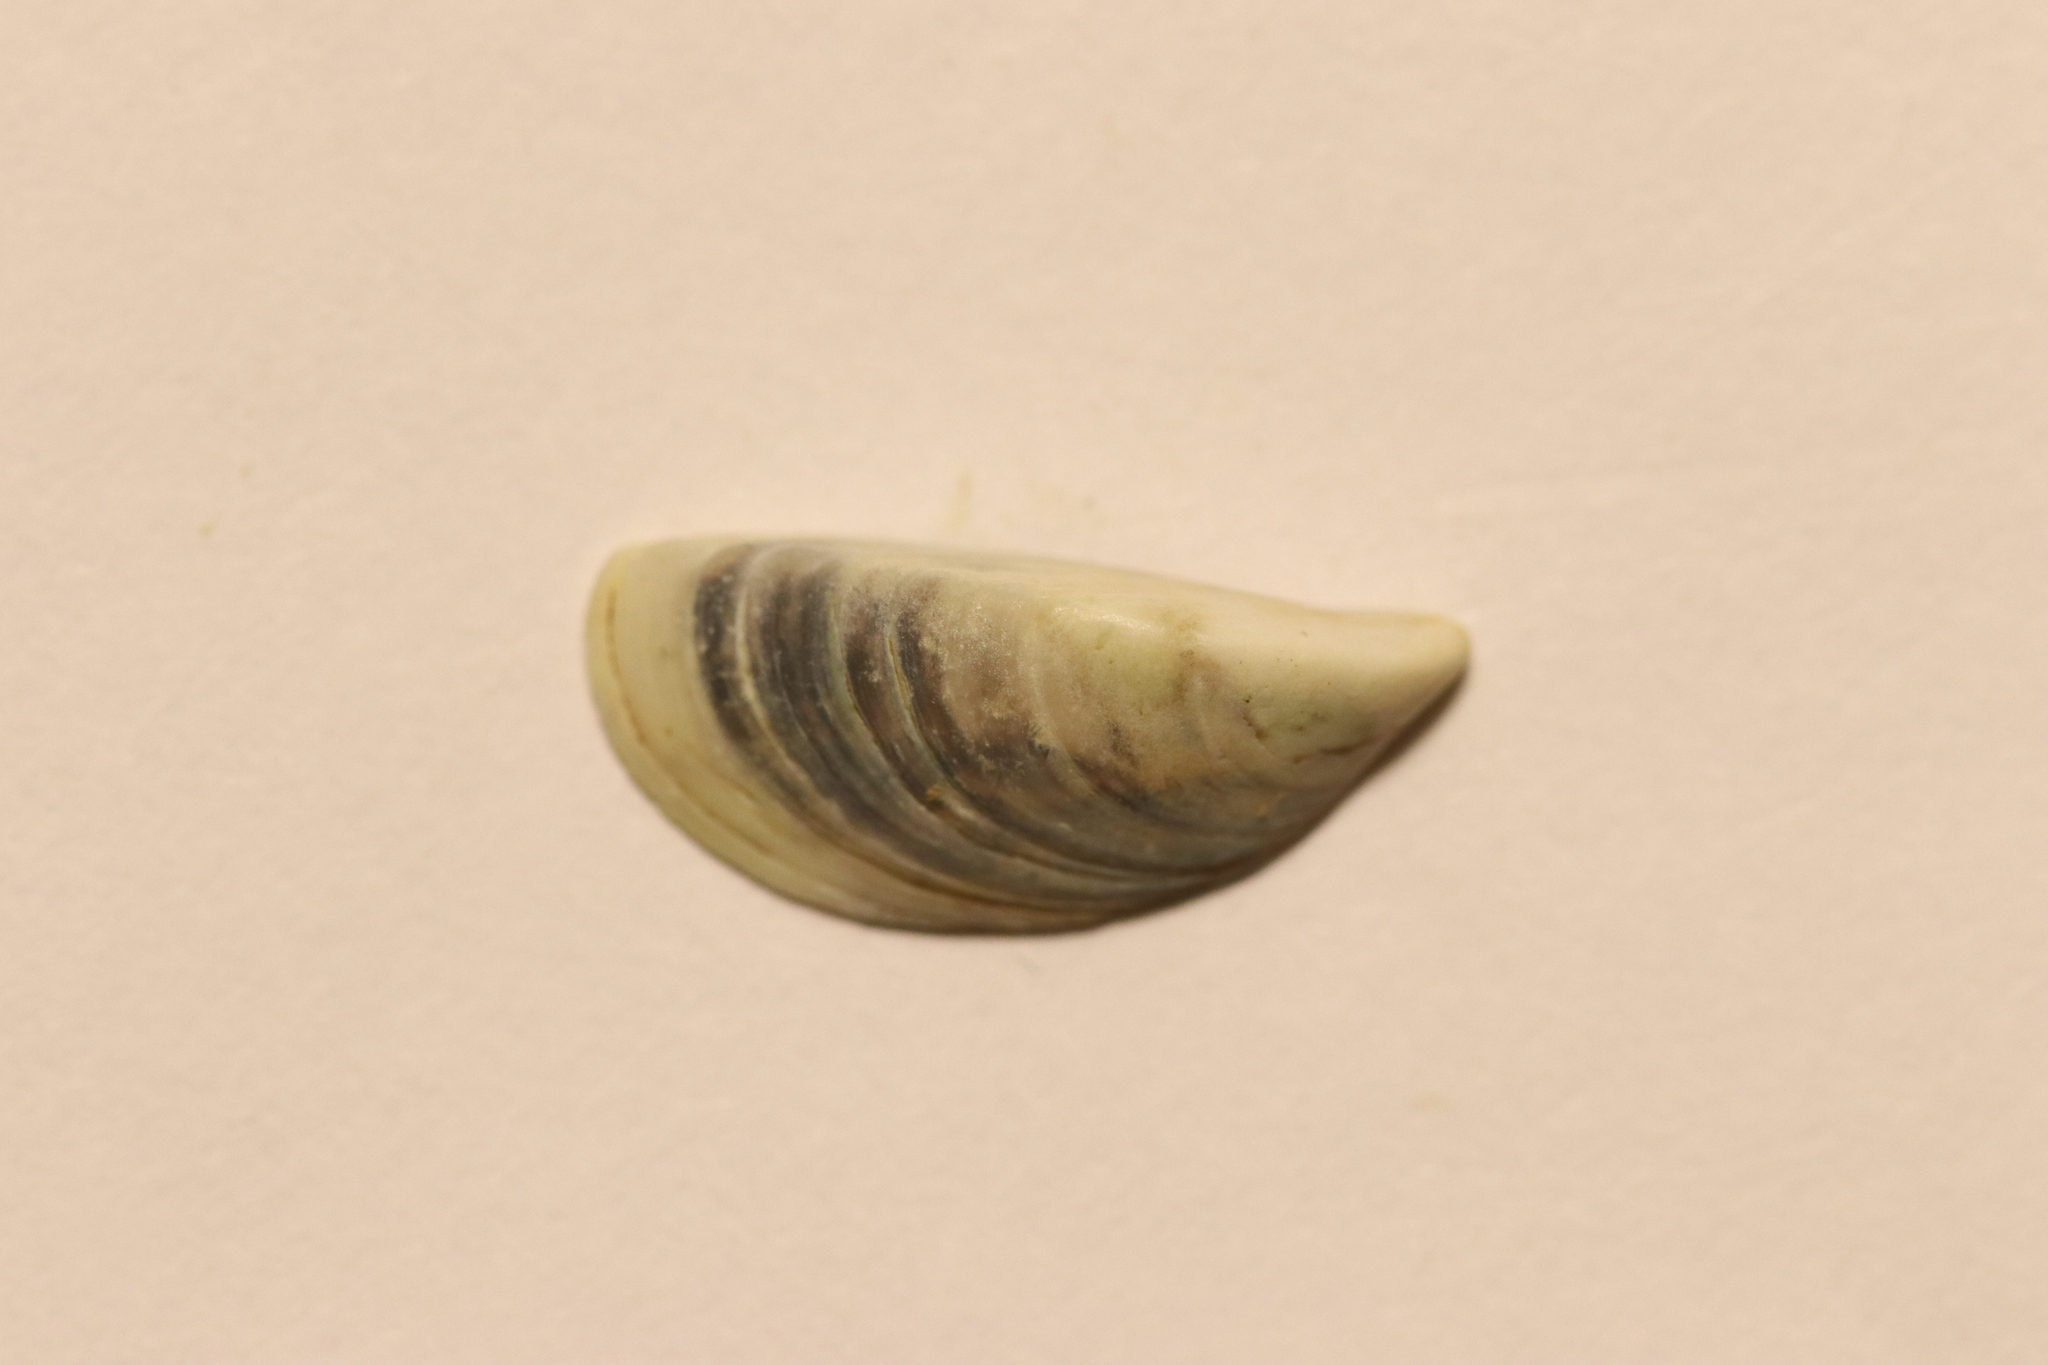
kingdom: Animalia
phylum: Mollusca
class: Bivalvia
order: Myida
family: Dreissenidae
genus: Dreissena
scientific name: Dreissena polymorpha
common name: Zebra mussel
